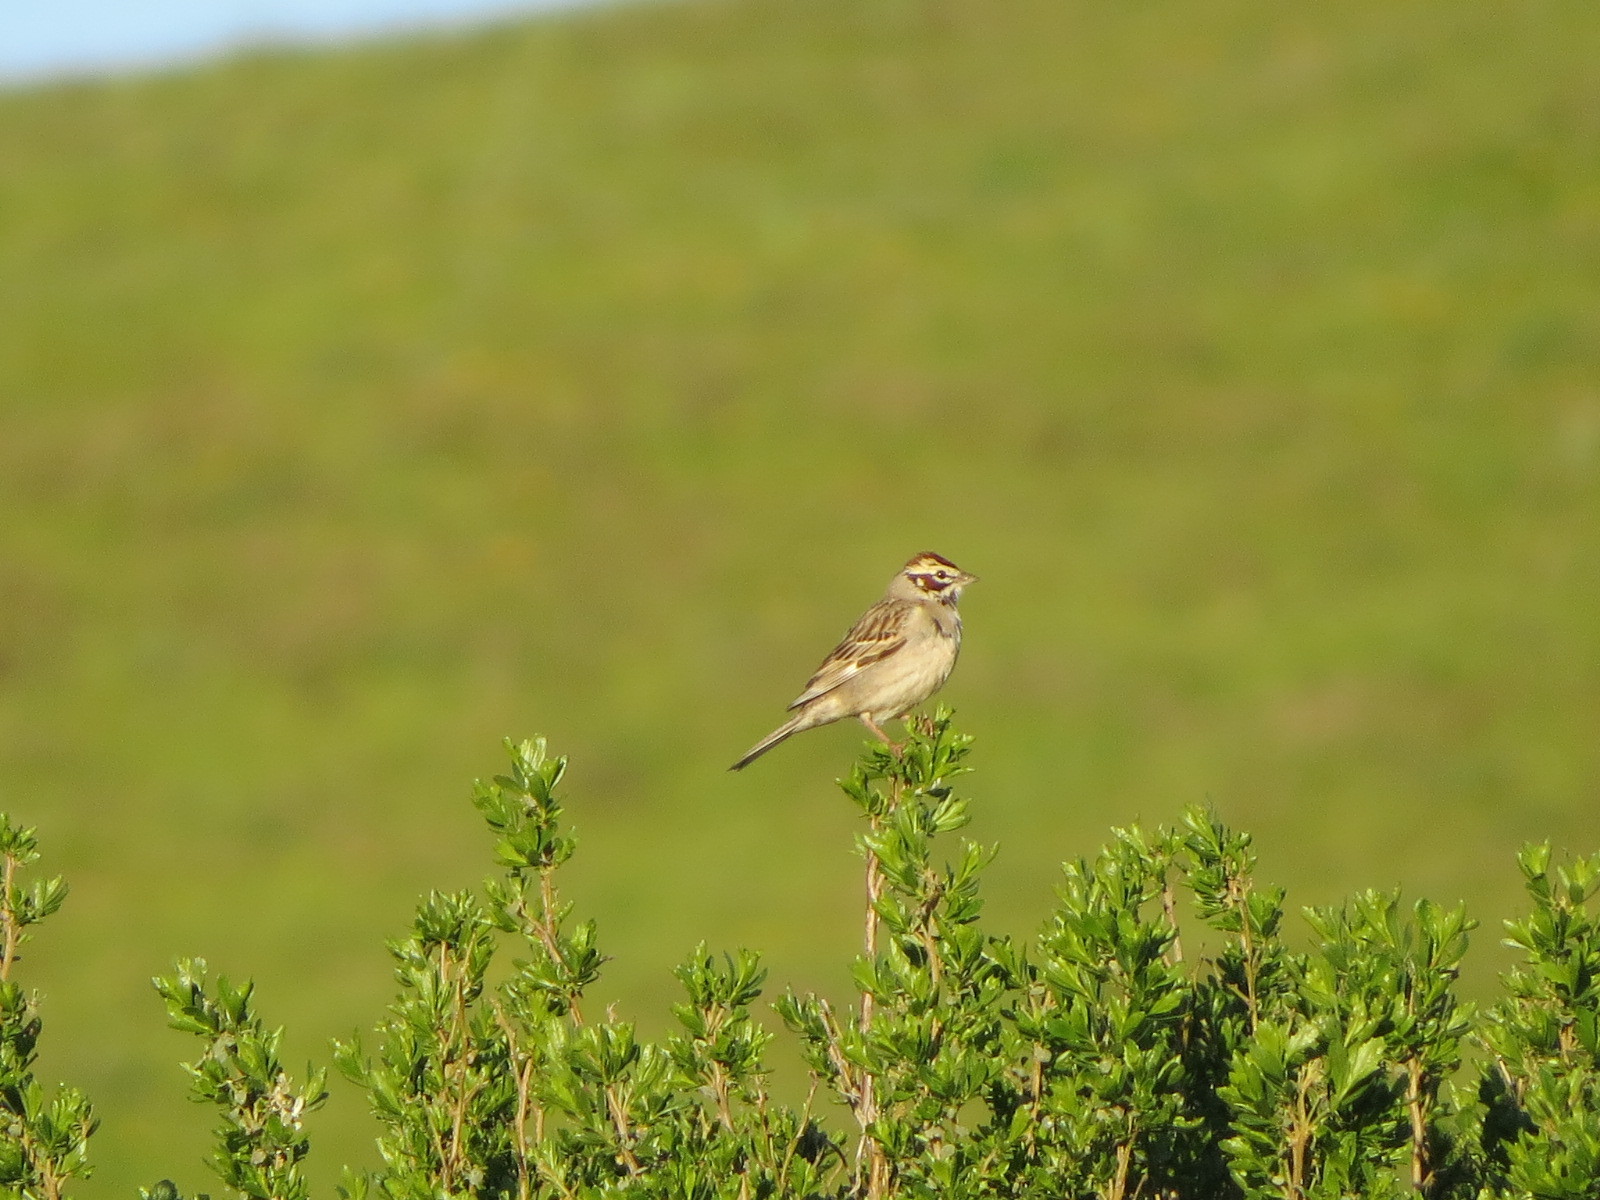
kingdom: Animalia
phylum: Chordata
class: Aves
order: Passeriformes
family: Passerellidae
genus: Chondestes
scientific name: Chondestes grammacus
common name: Lark sparrow
